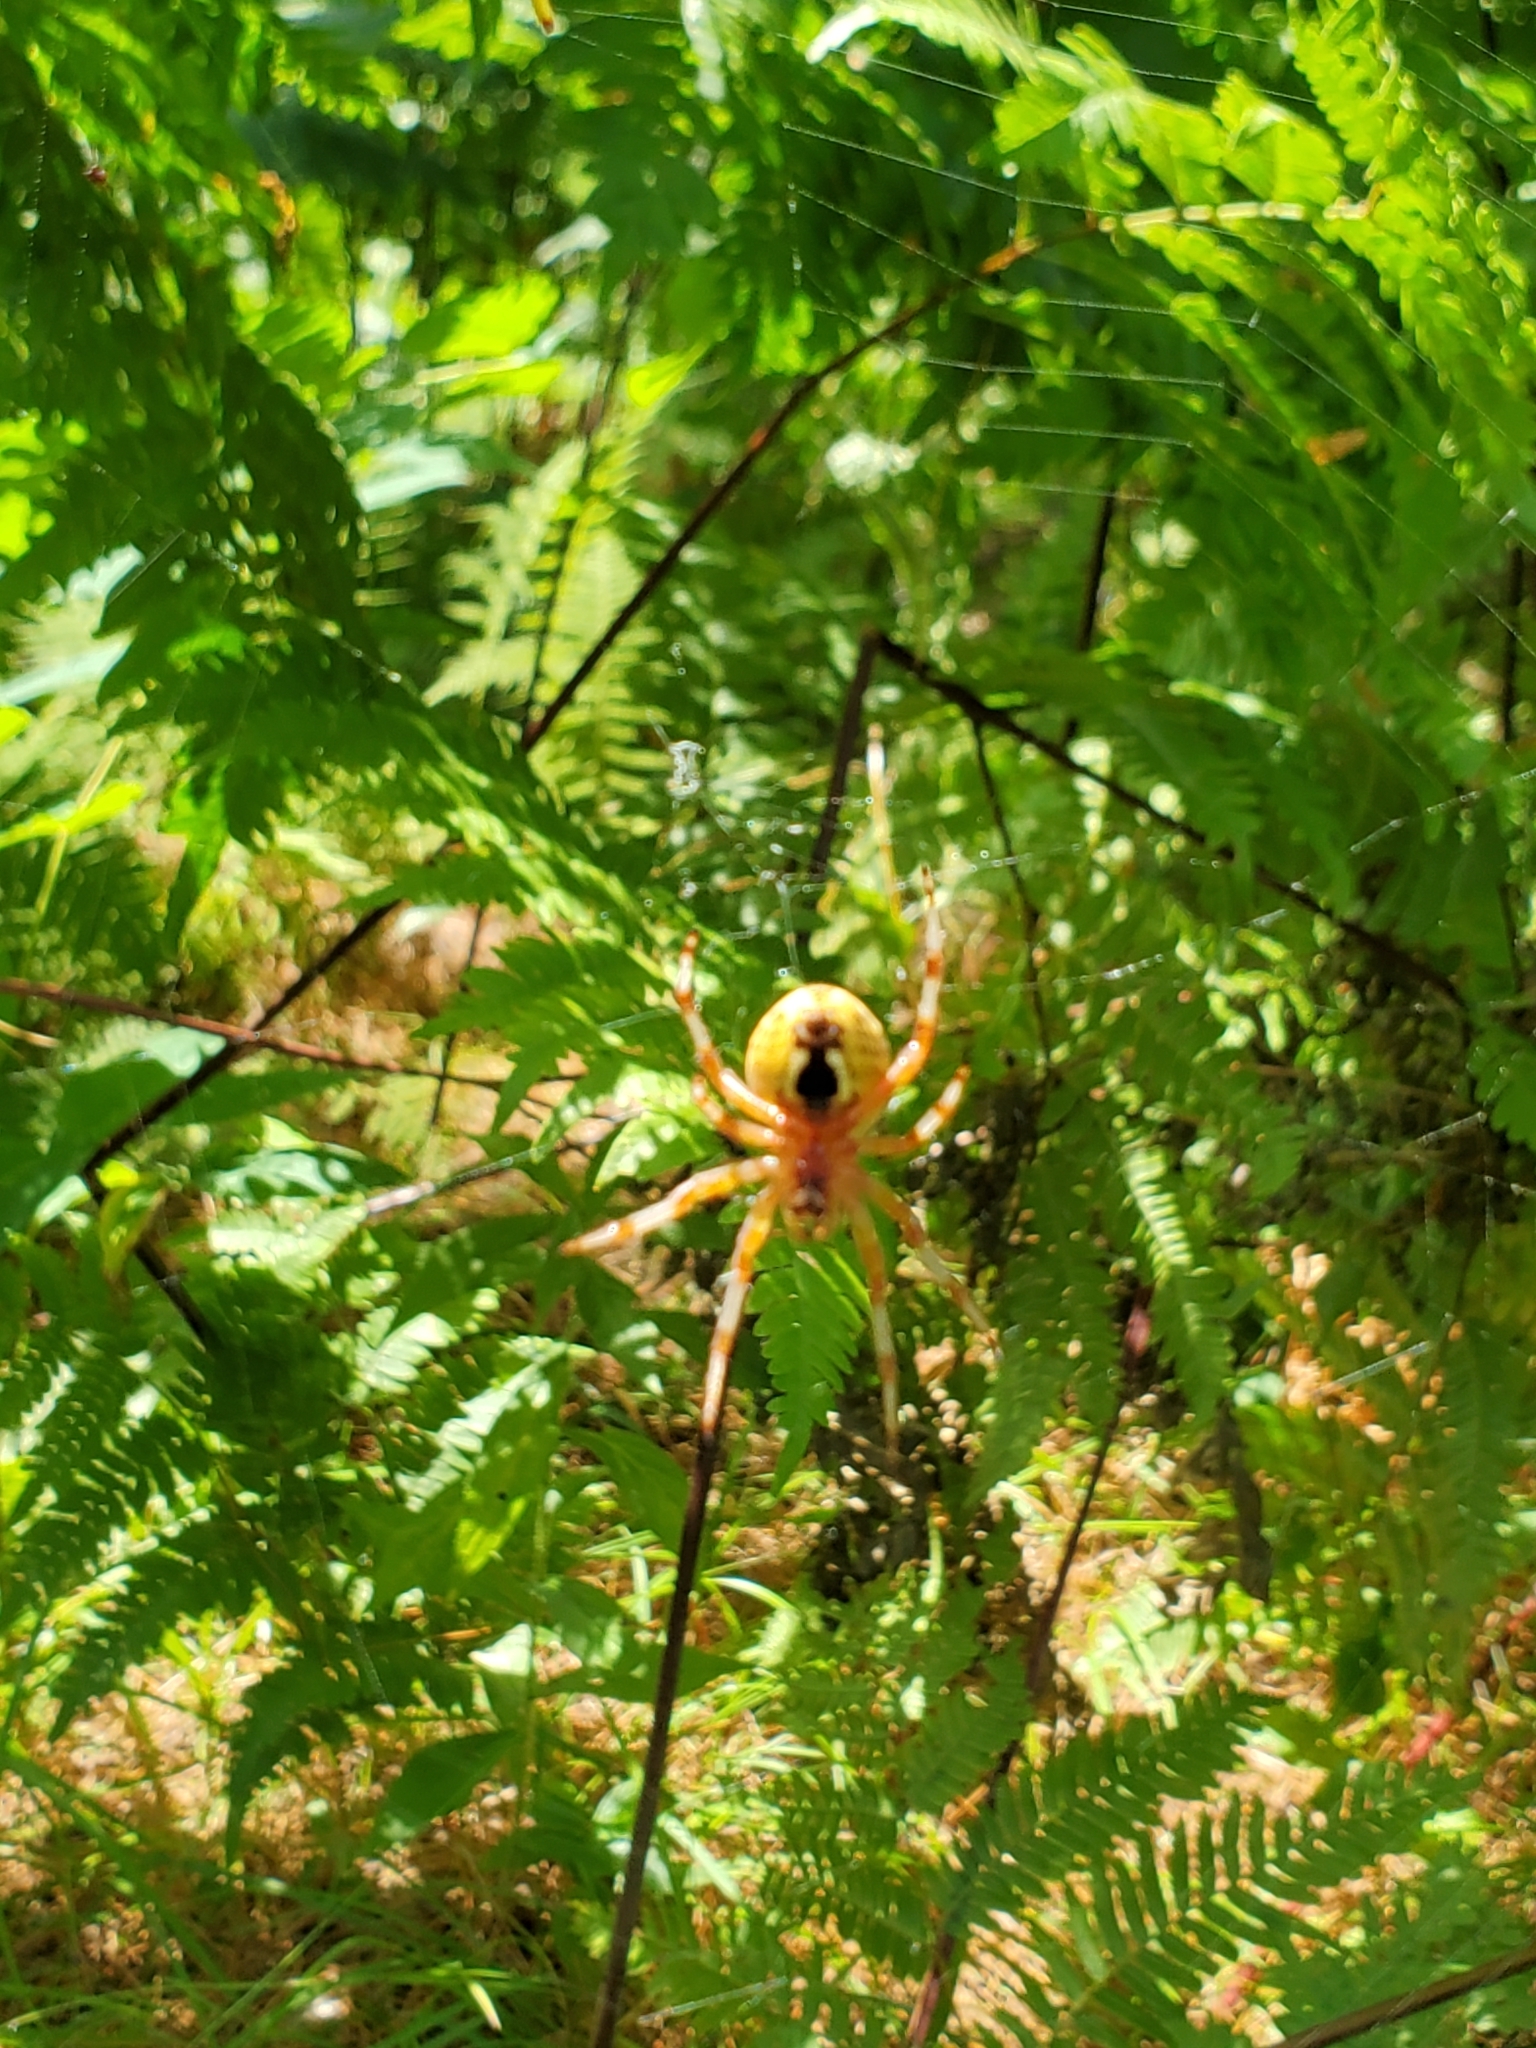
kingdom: Animalia
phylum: Arthropoda
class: Arachnida
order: Araneae
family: Araneidae
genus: Araneus
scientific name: Araneus marmoreus
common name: Marbled orbweaver
